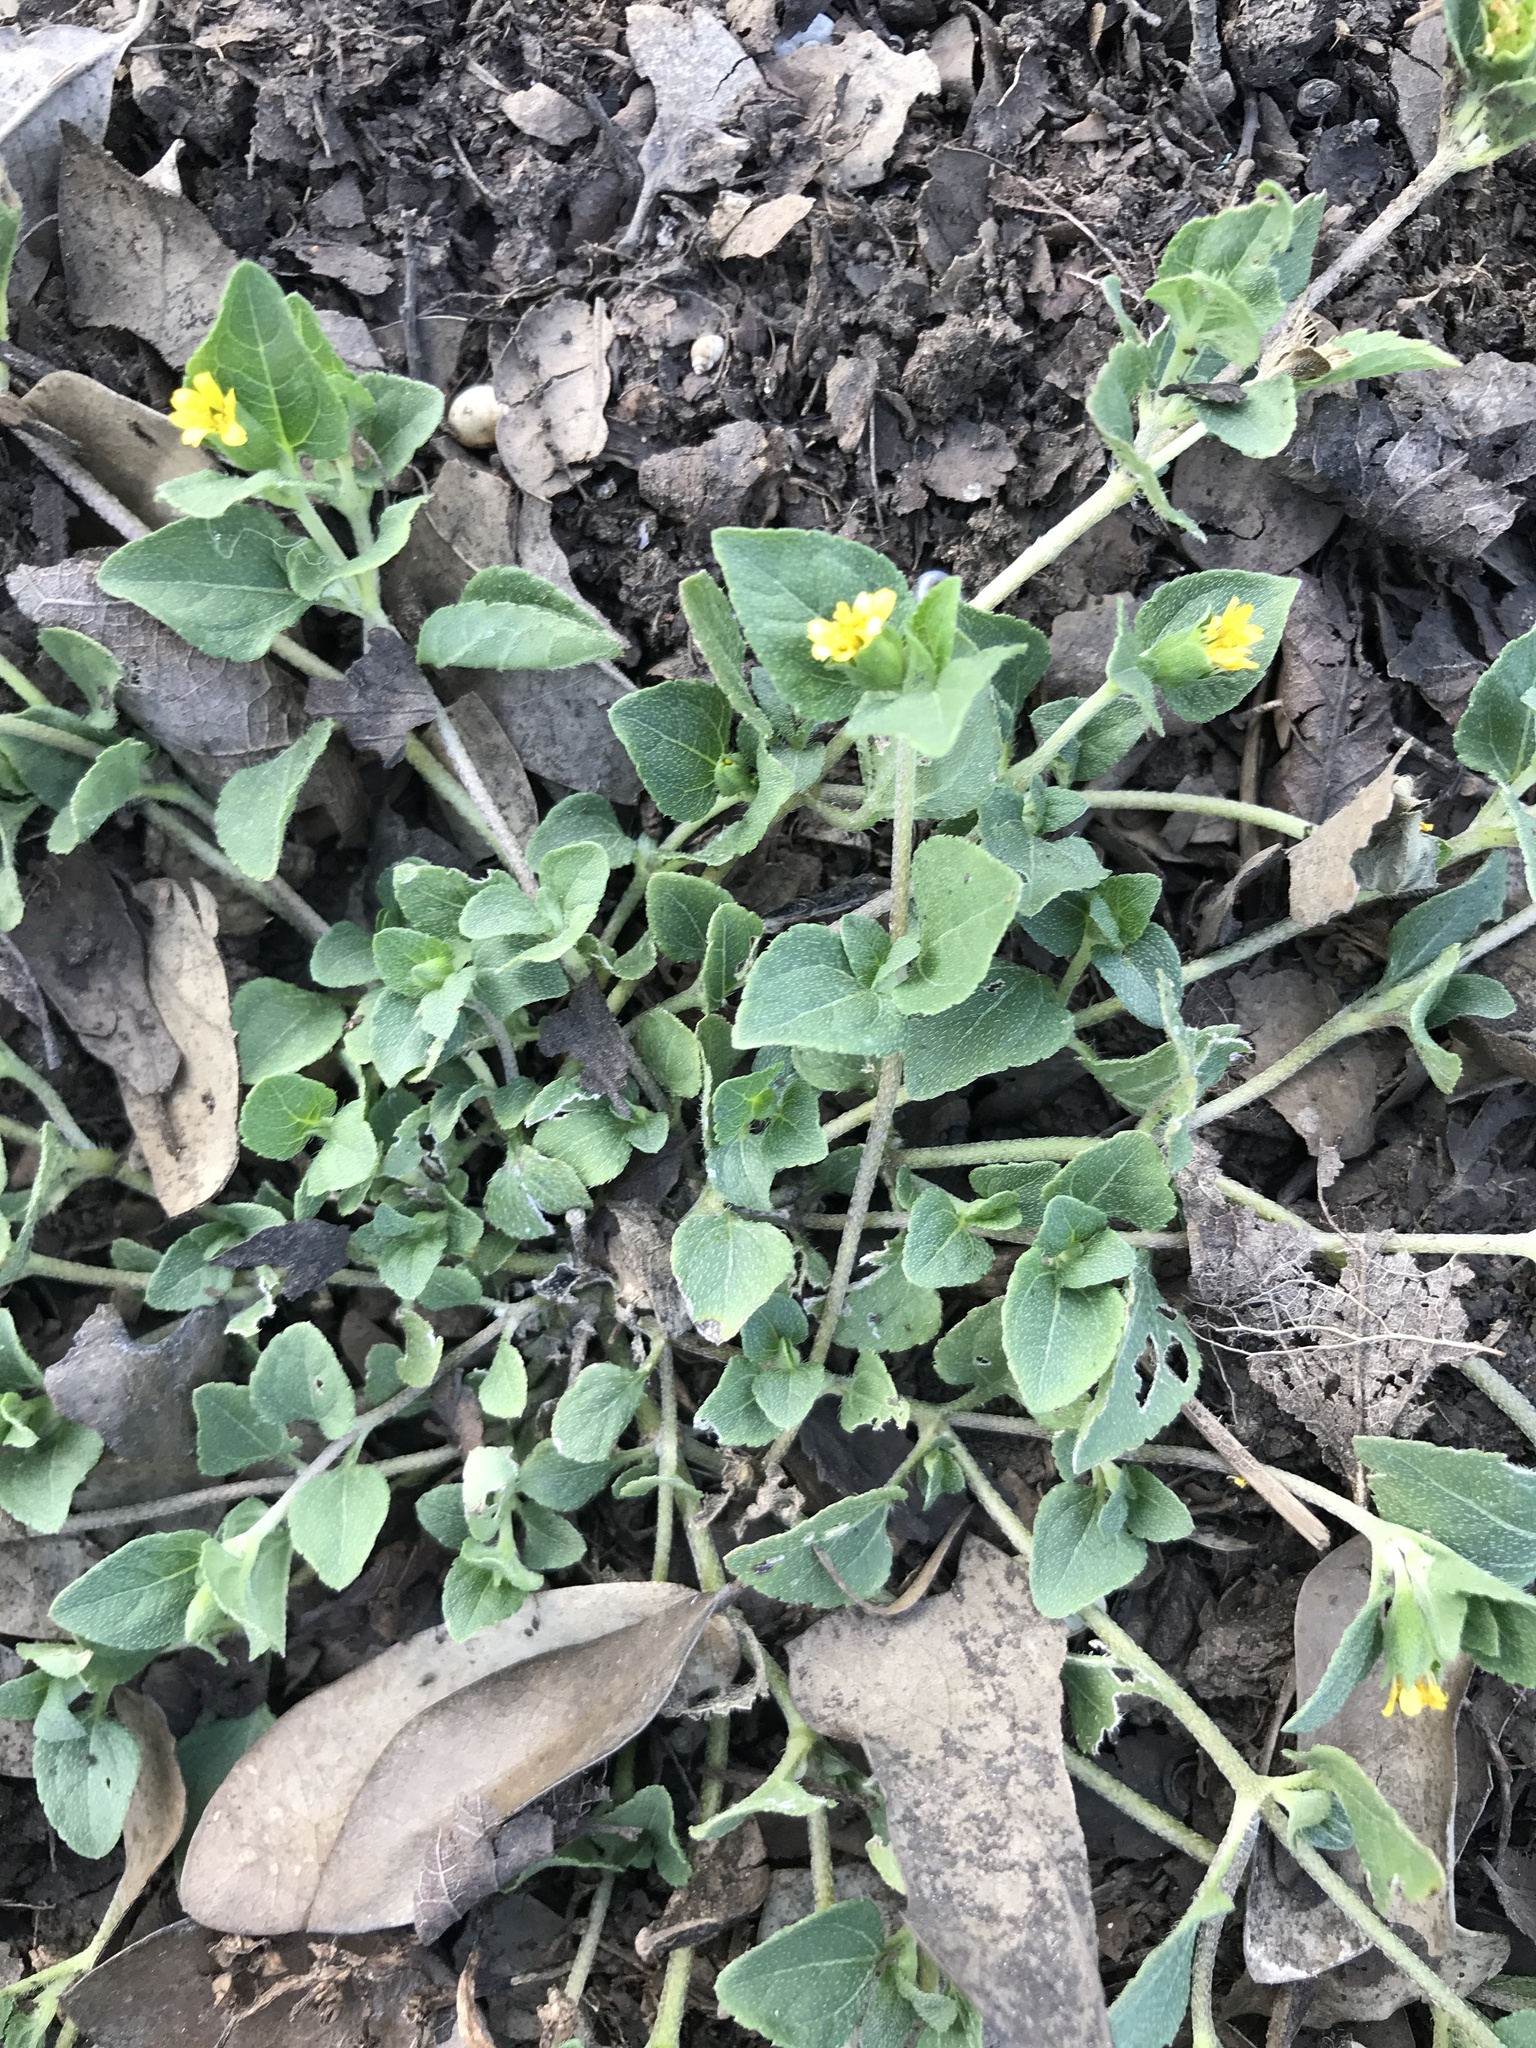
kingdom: Plantae
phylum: Tracheophyta
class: Magnoliopsida
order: Asterales
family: Asteraceae
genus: Calyptocarpus
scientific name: Calyptocarpus vialis
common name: Straggler daisy
